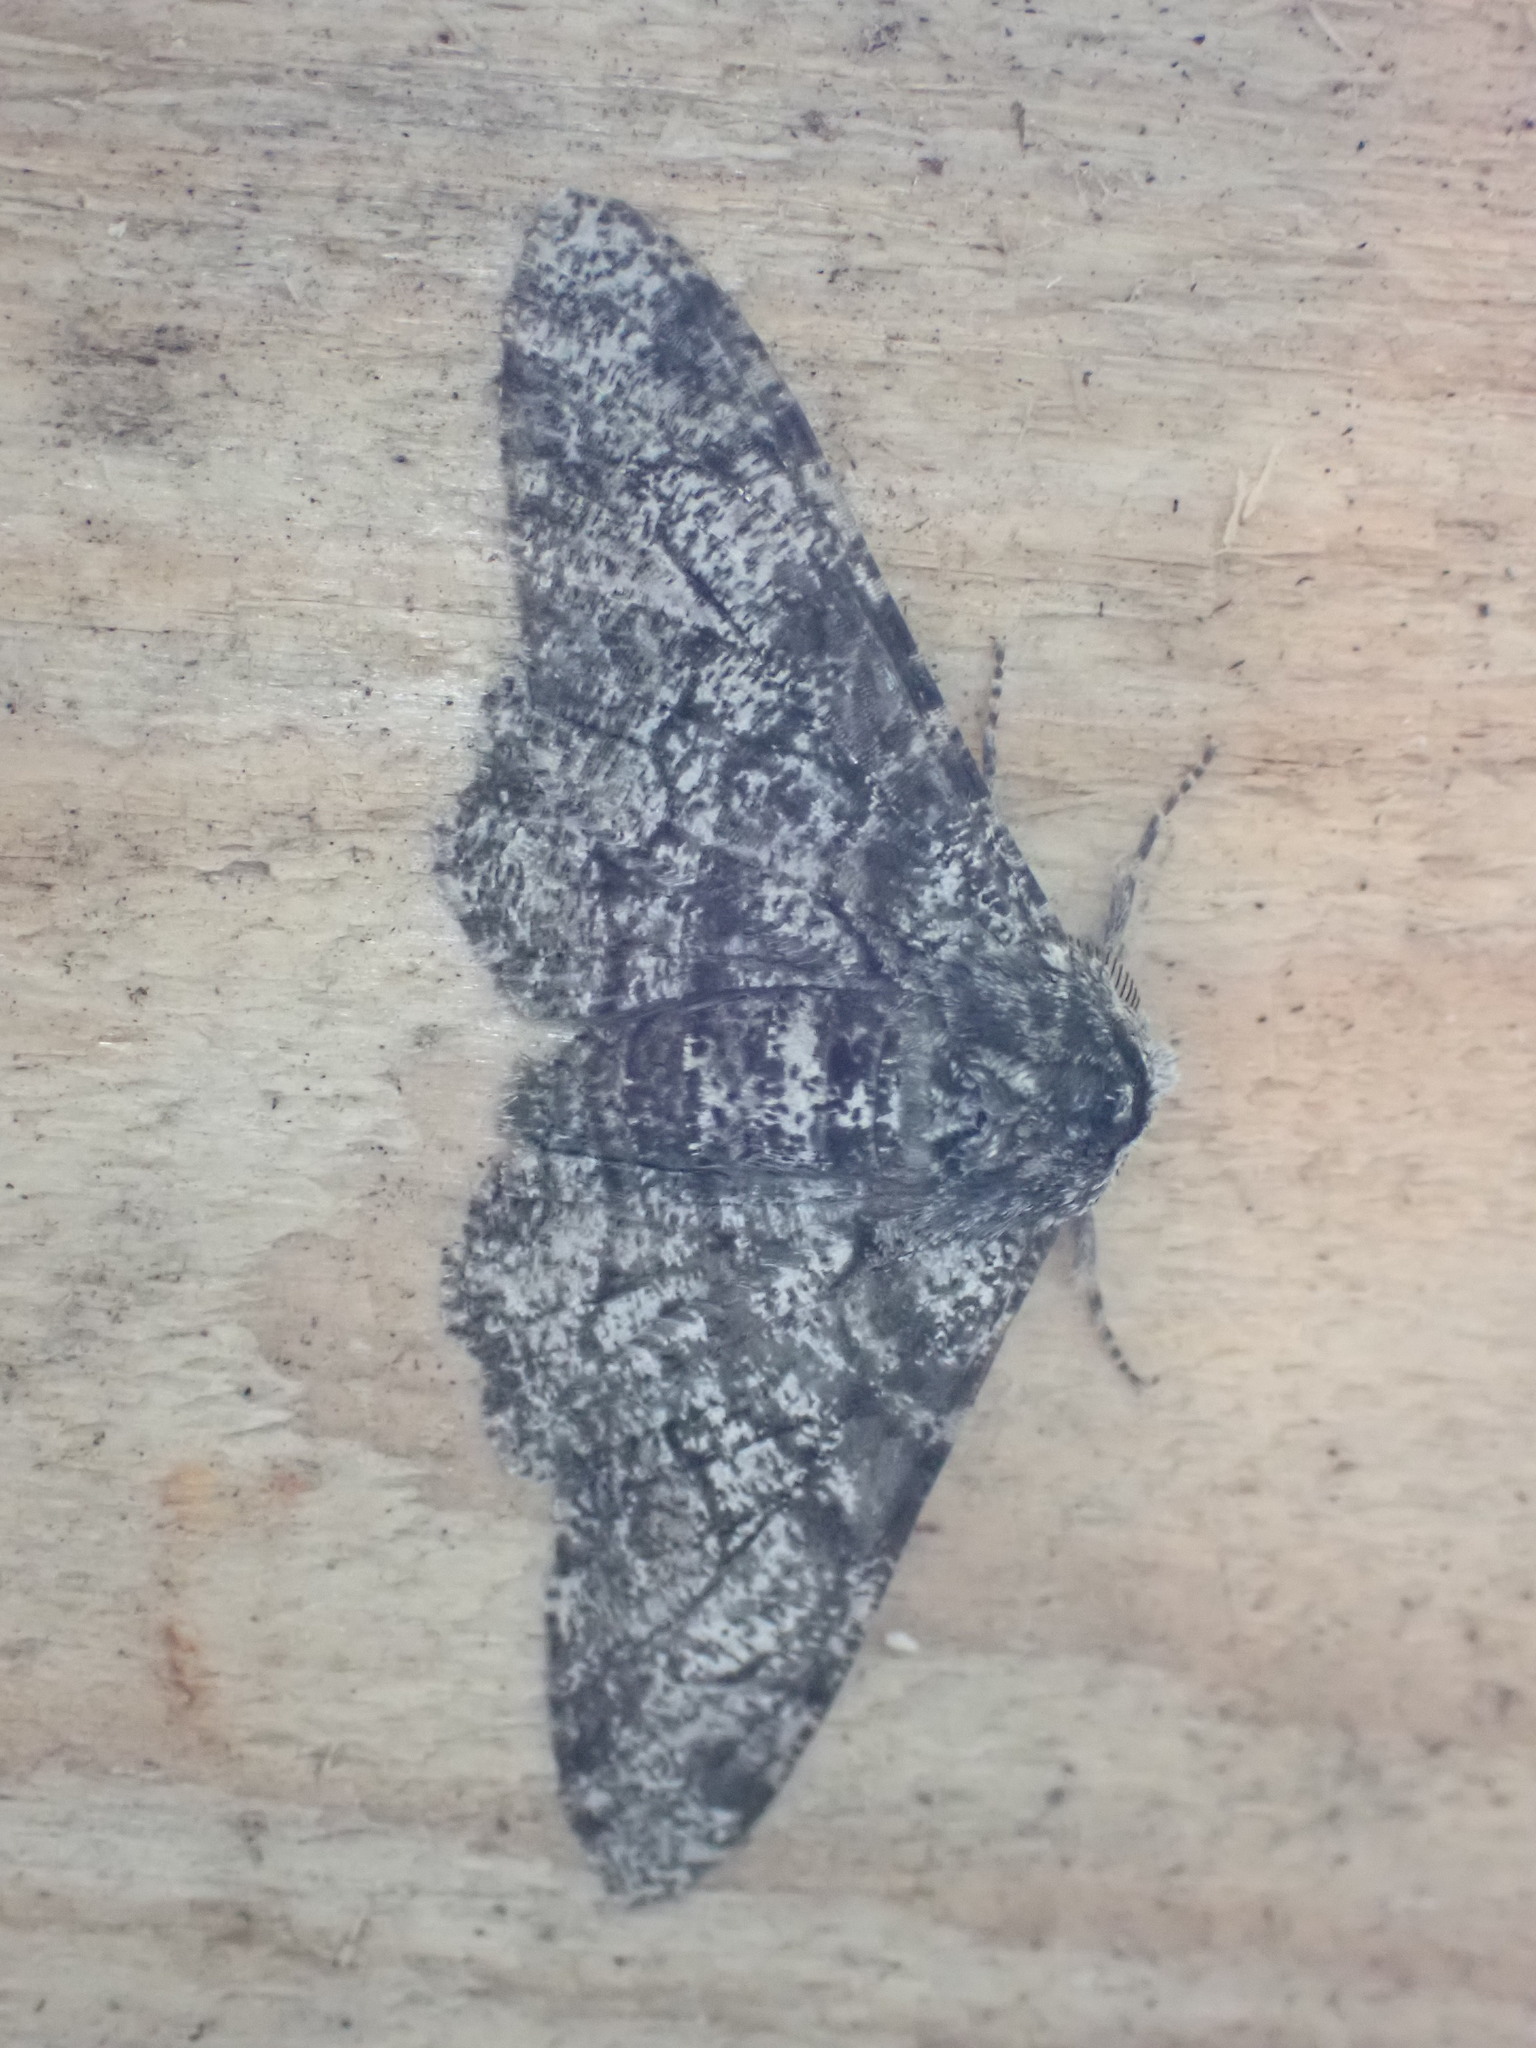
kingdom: Animalia
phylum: Arthropoda
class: Insecta
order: Lepidoptera
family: Geometridae
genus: Biston
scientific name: Biston betularia
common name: Peppered moth
